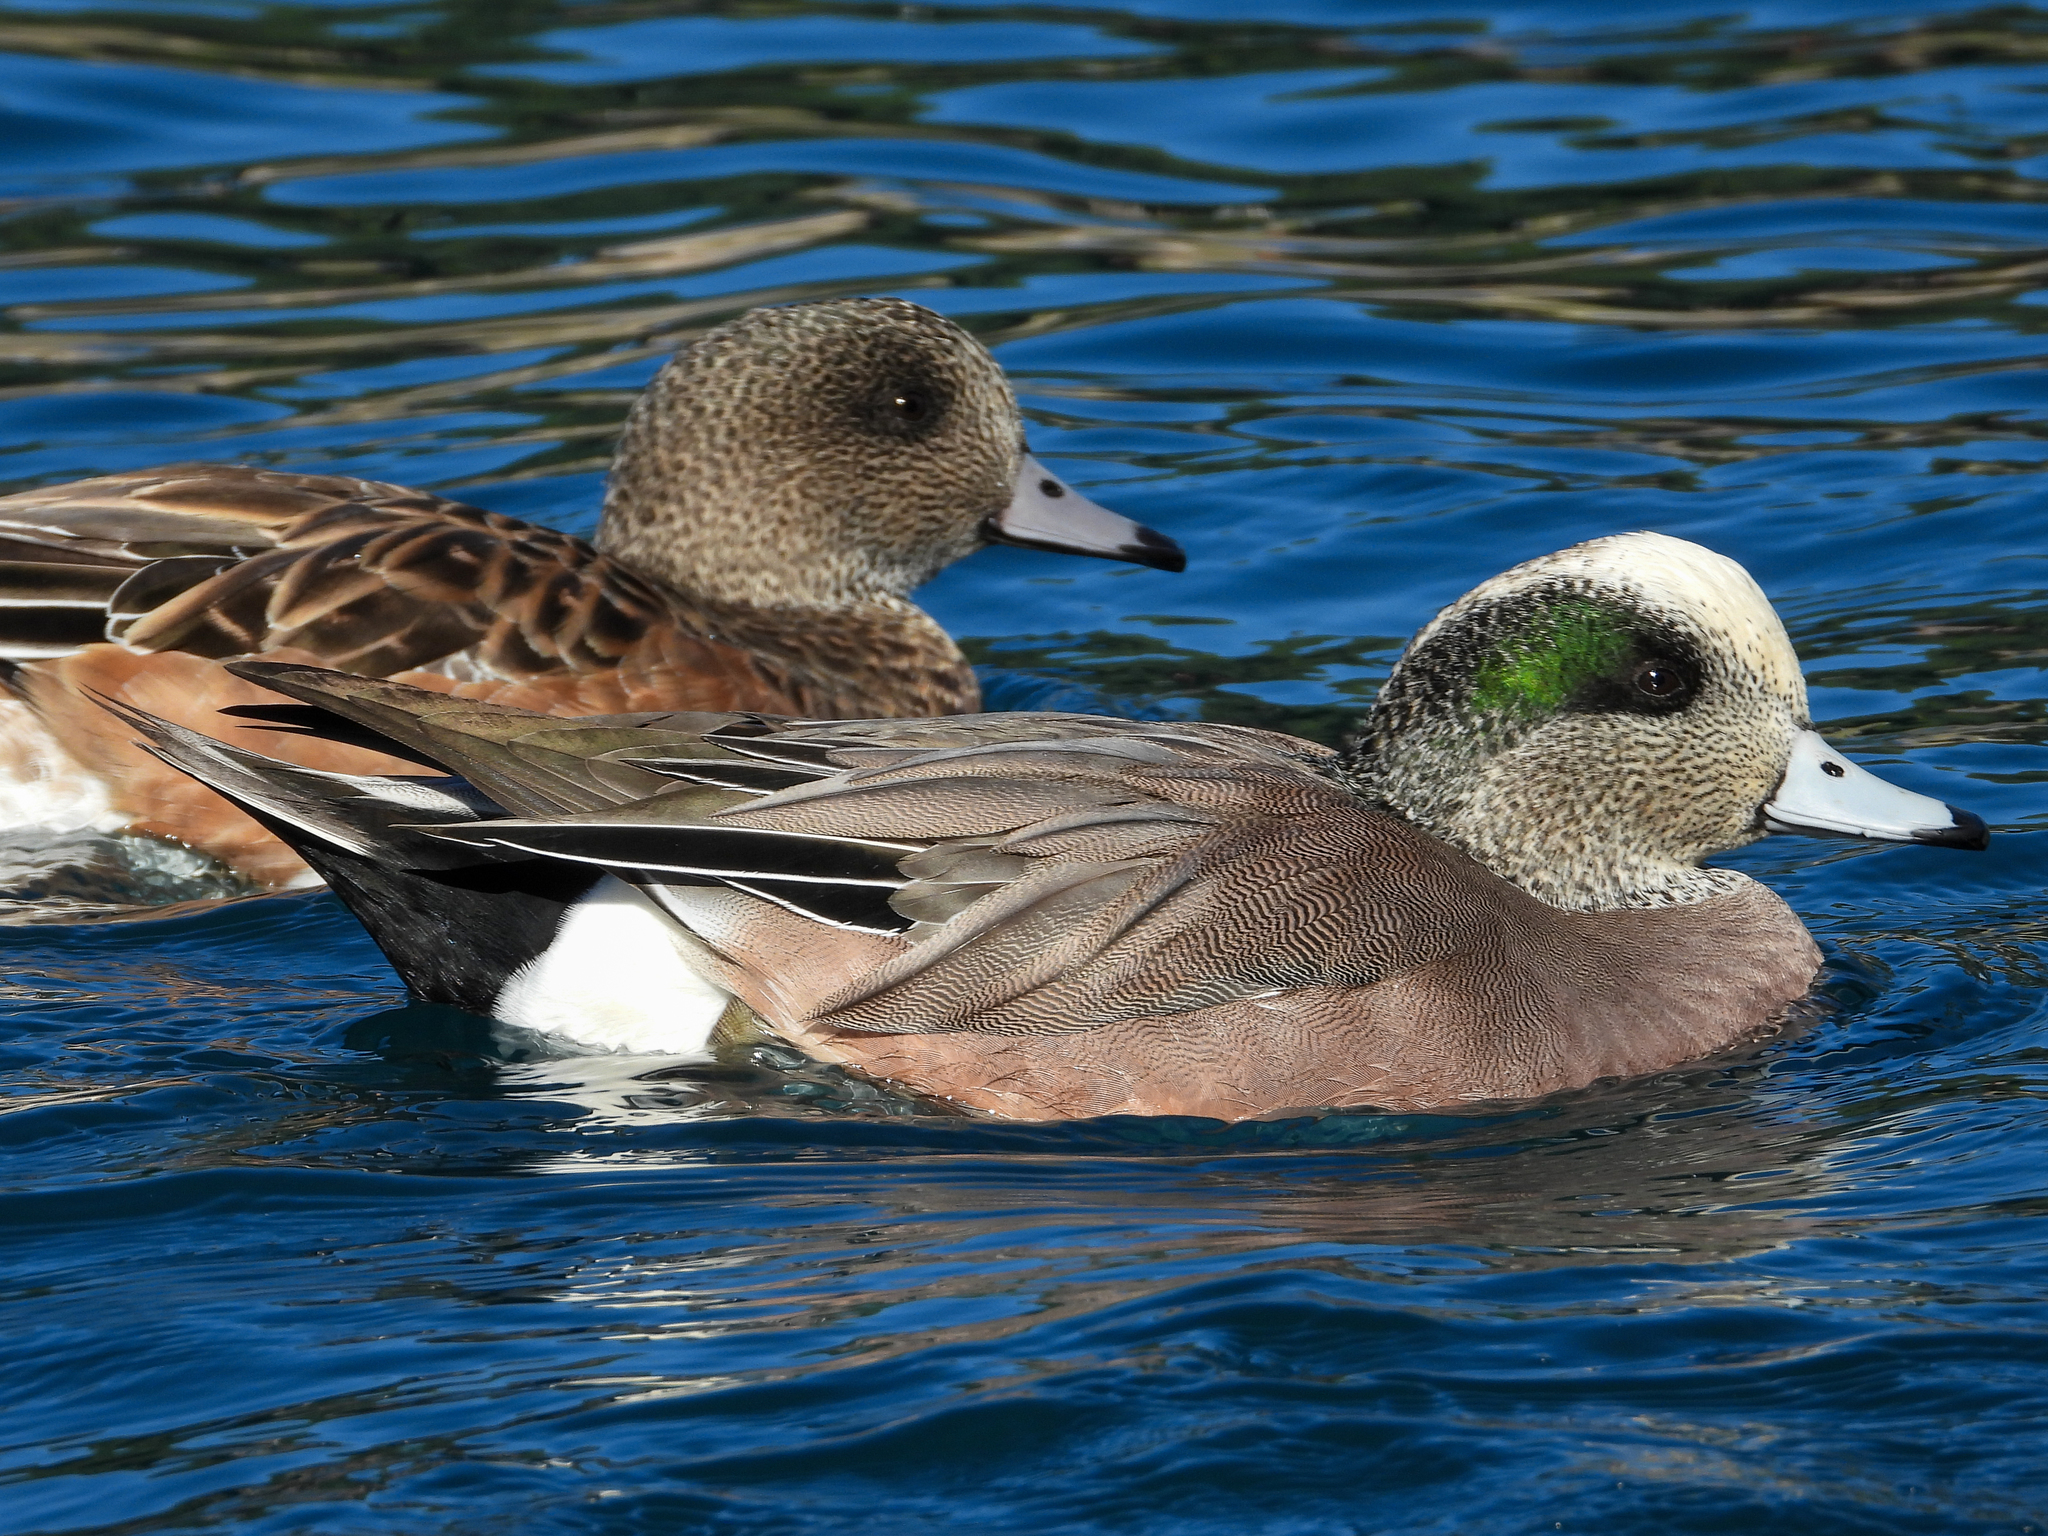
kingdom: Animalia
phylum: Chordata
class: Aves
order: Anseriformes
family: Anatidae
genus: Mareca
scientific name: Mareca americana
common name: American wigeon
